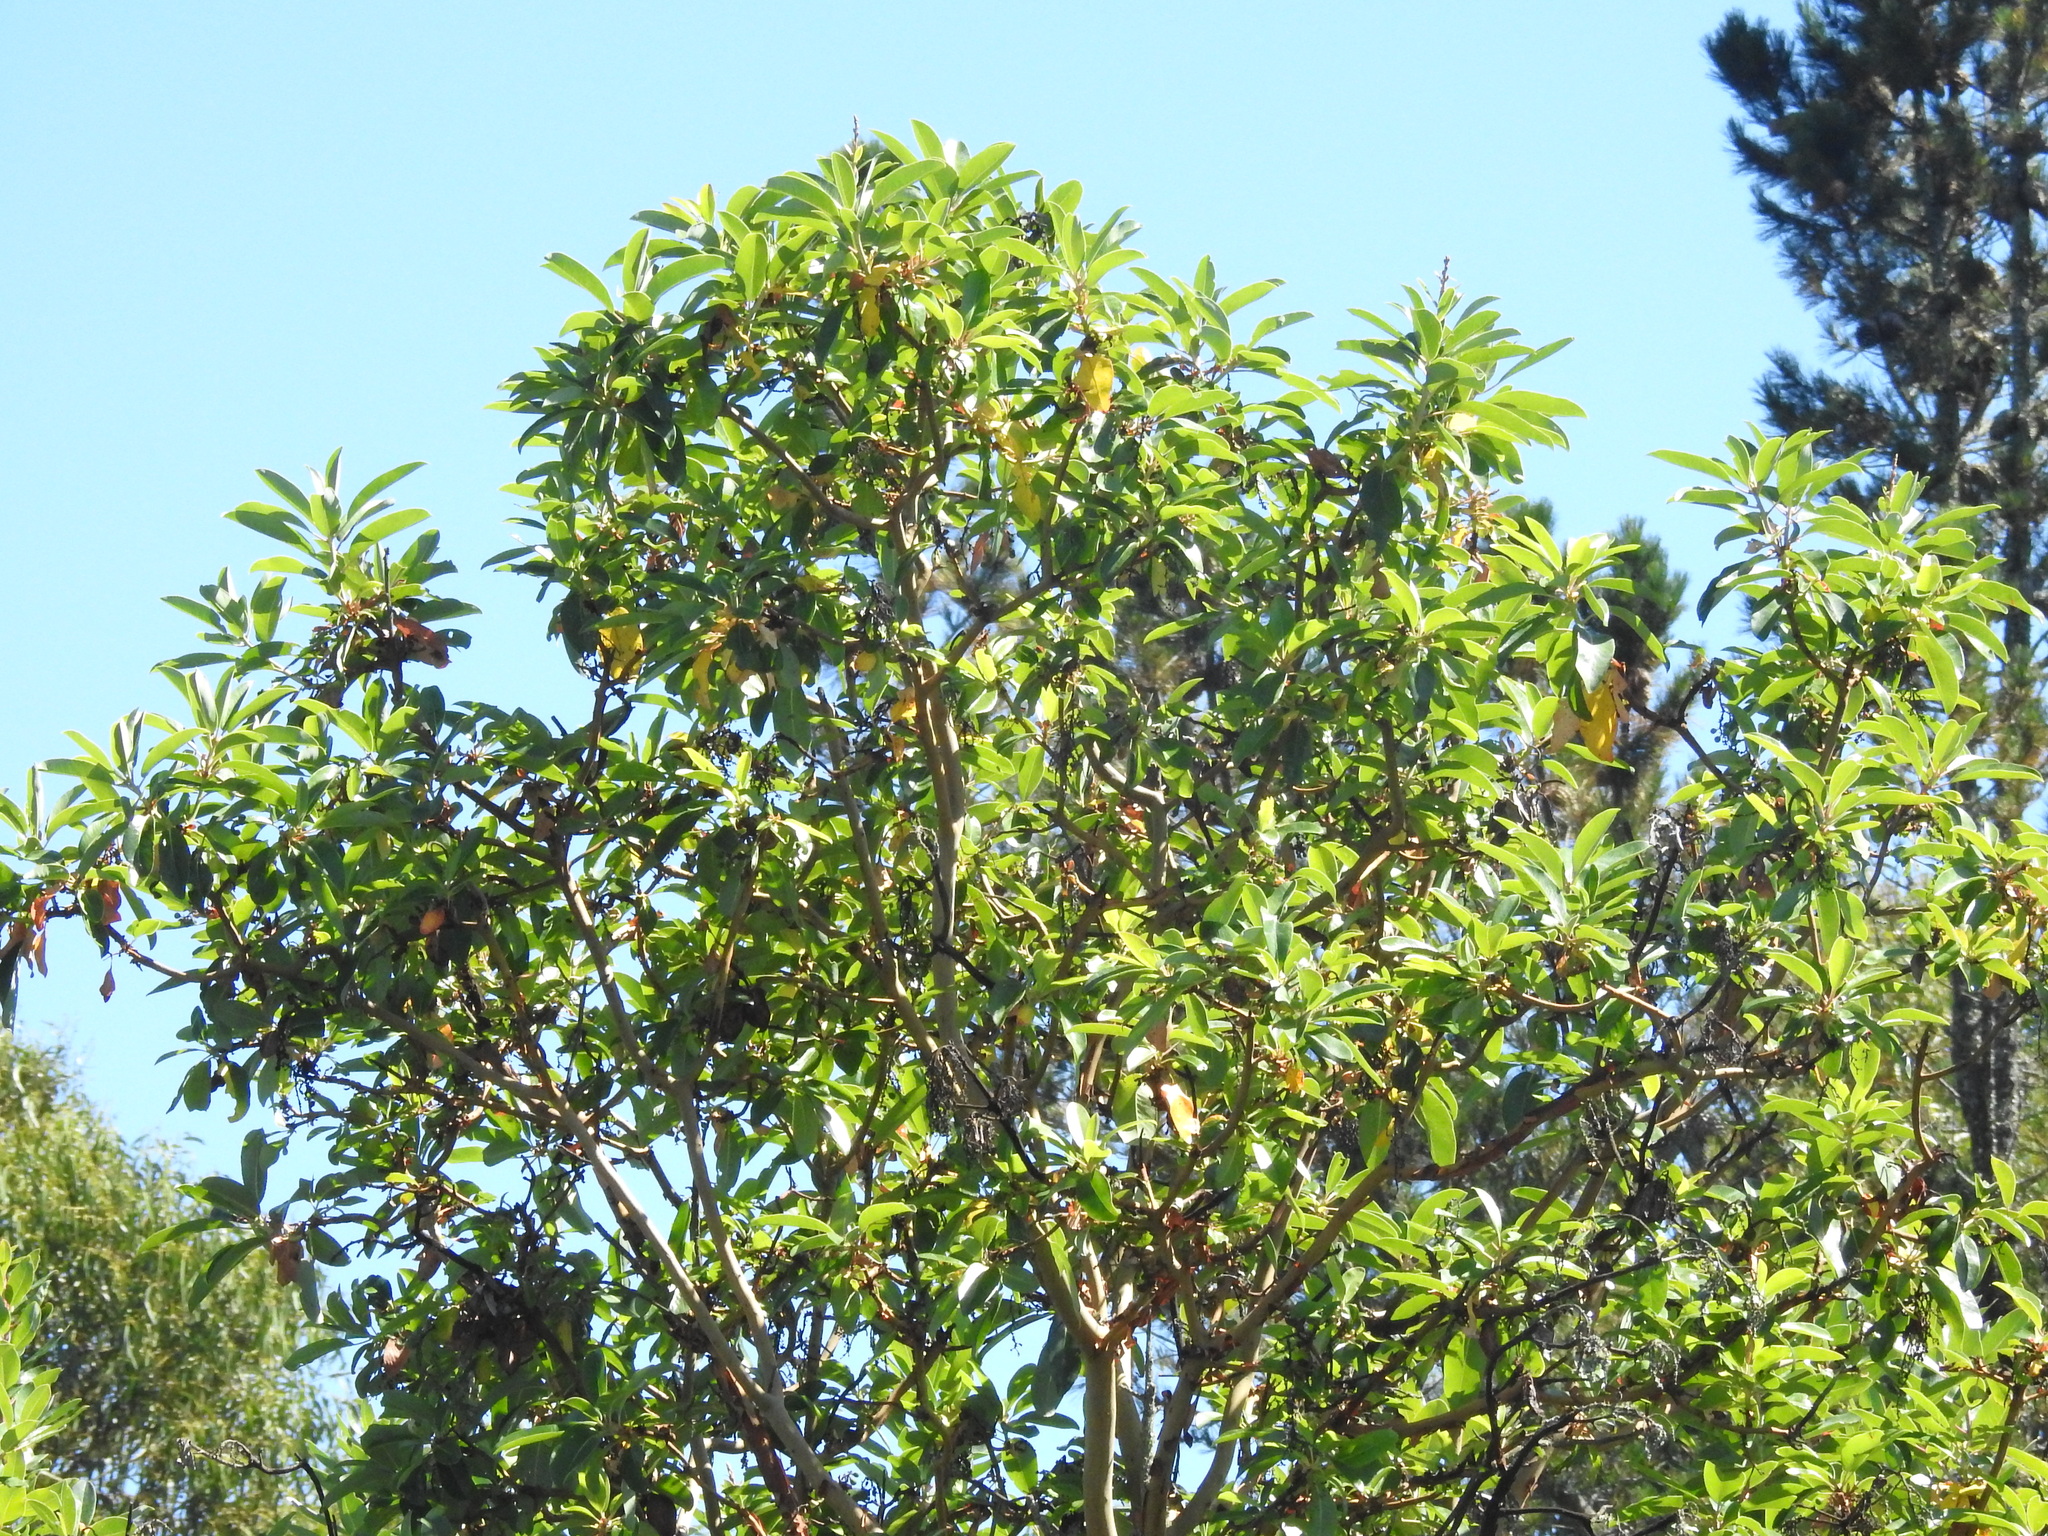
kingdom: Plantae
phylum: Tracheophyta
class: Magnoliopsida
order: Ericales
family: Ericaceae
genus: Arbutus
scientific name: Arbutus menziesii
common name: Pacific madrone
